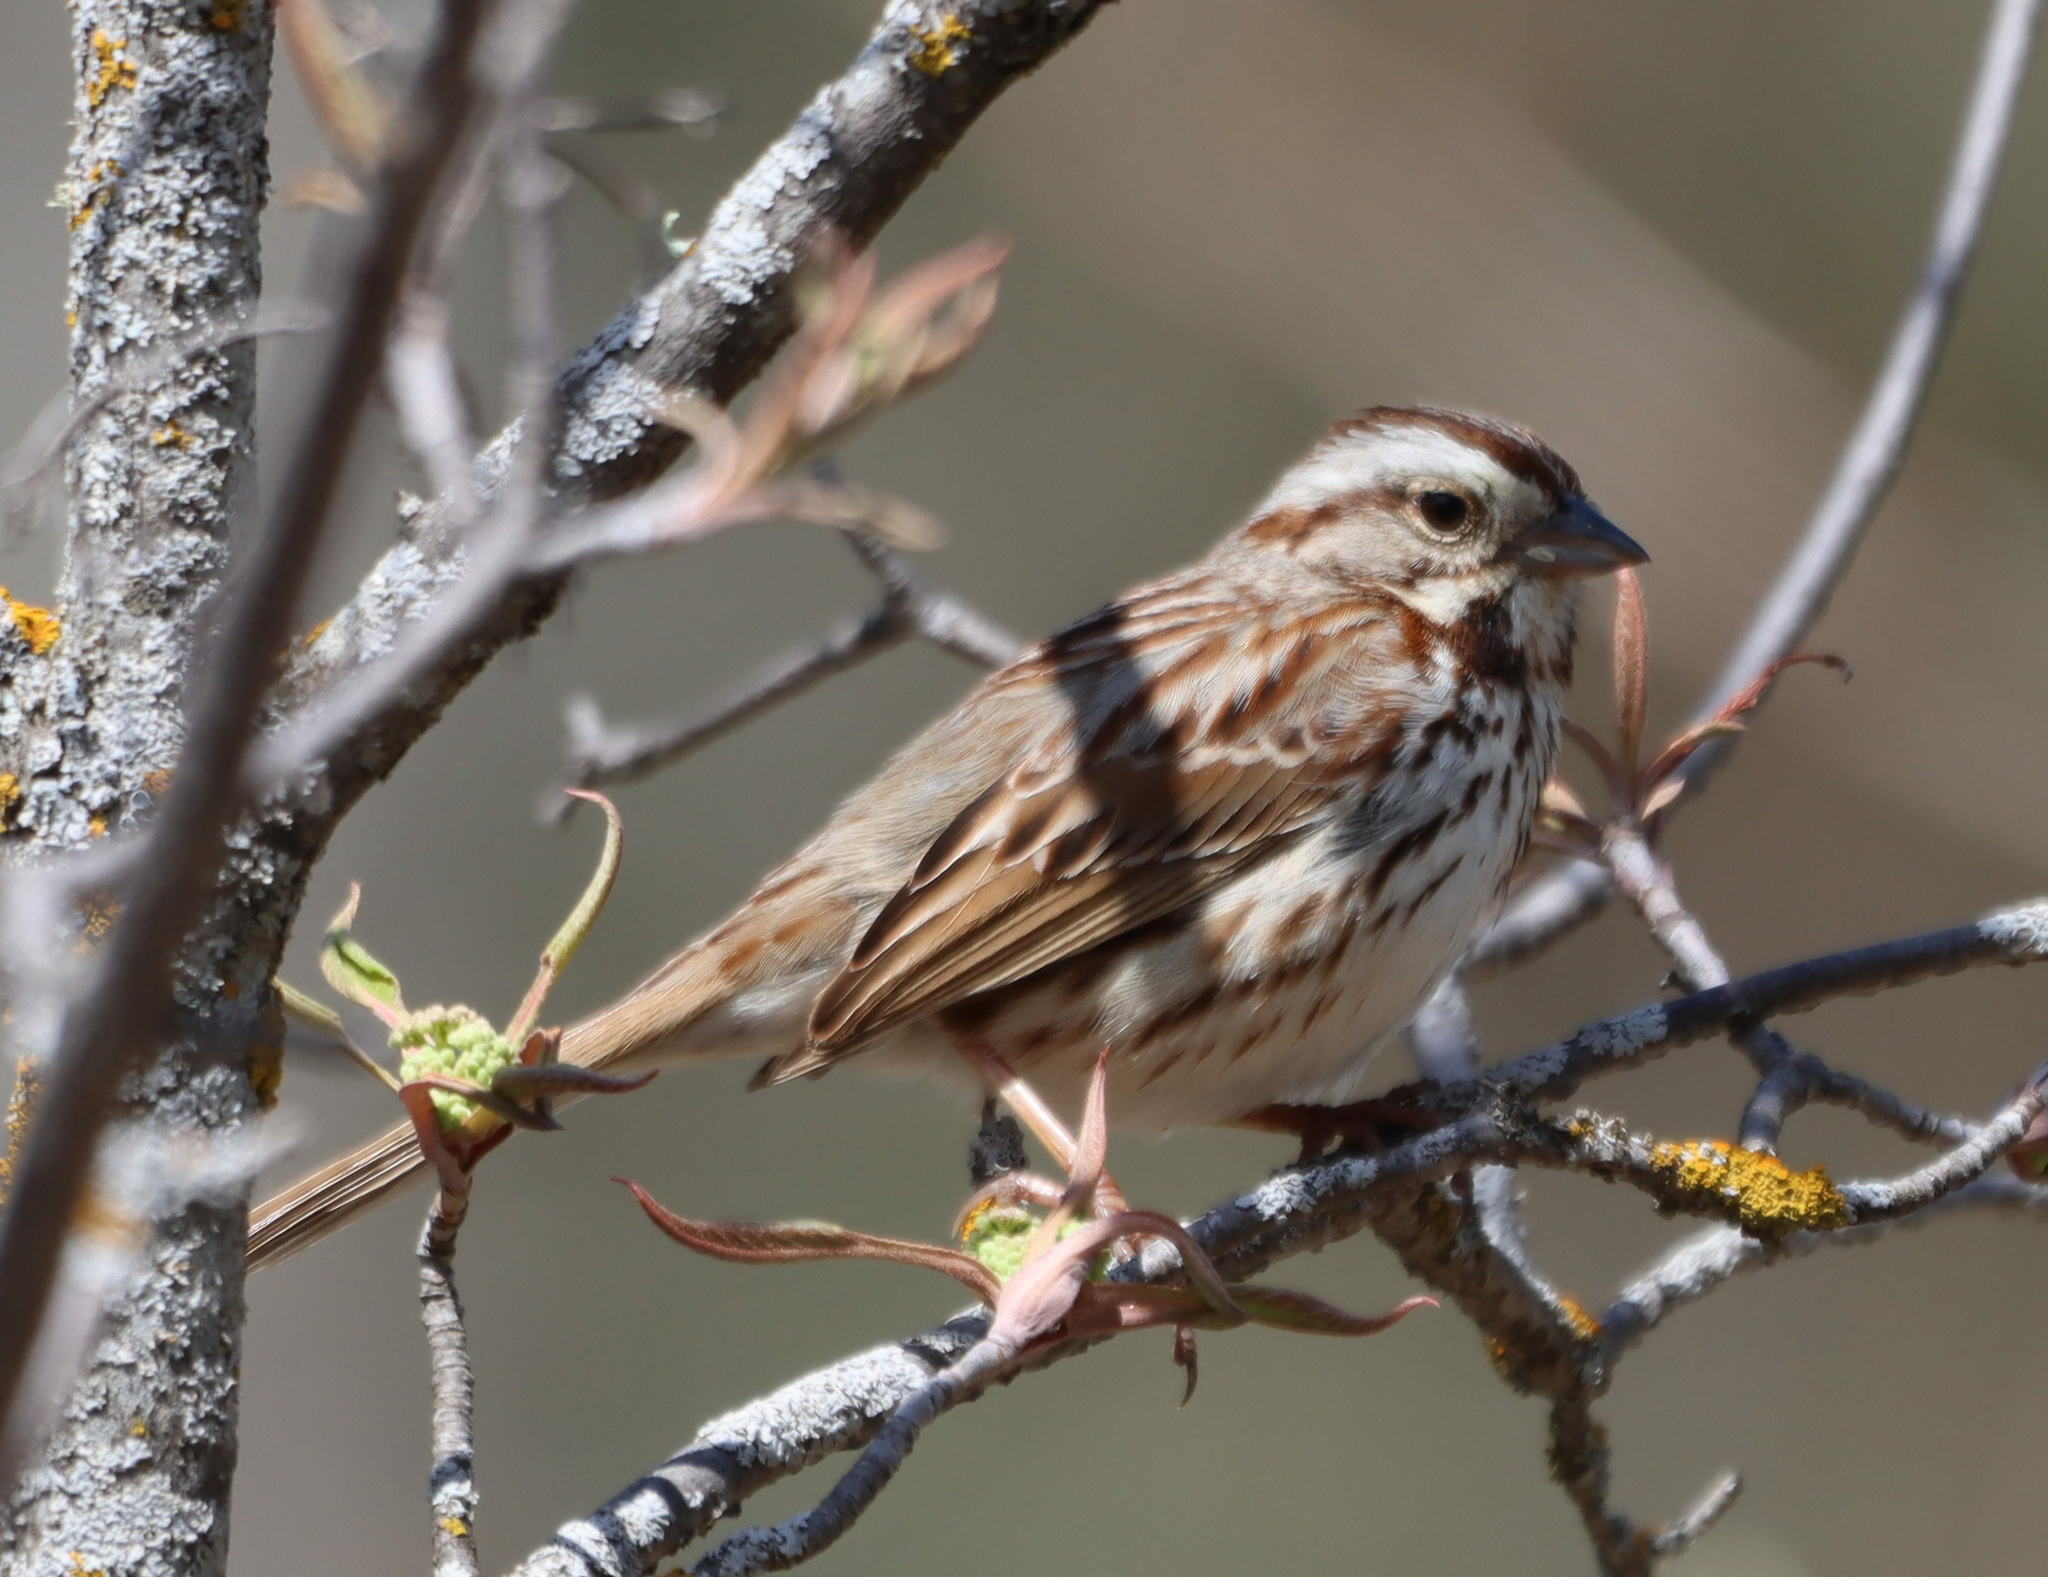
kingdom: Animalia
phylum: Chordata
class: Aves
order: Passeriformes
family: Passerellidae
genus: Melospiza
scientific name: Melospiza melodia
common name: Song sparrow
